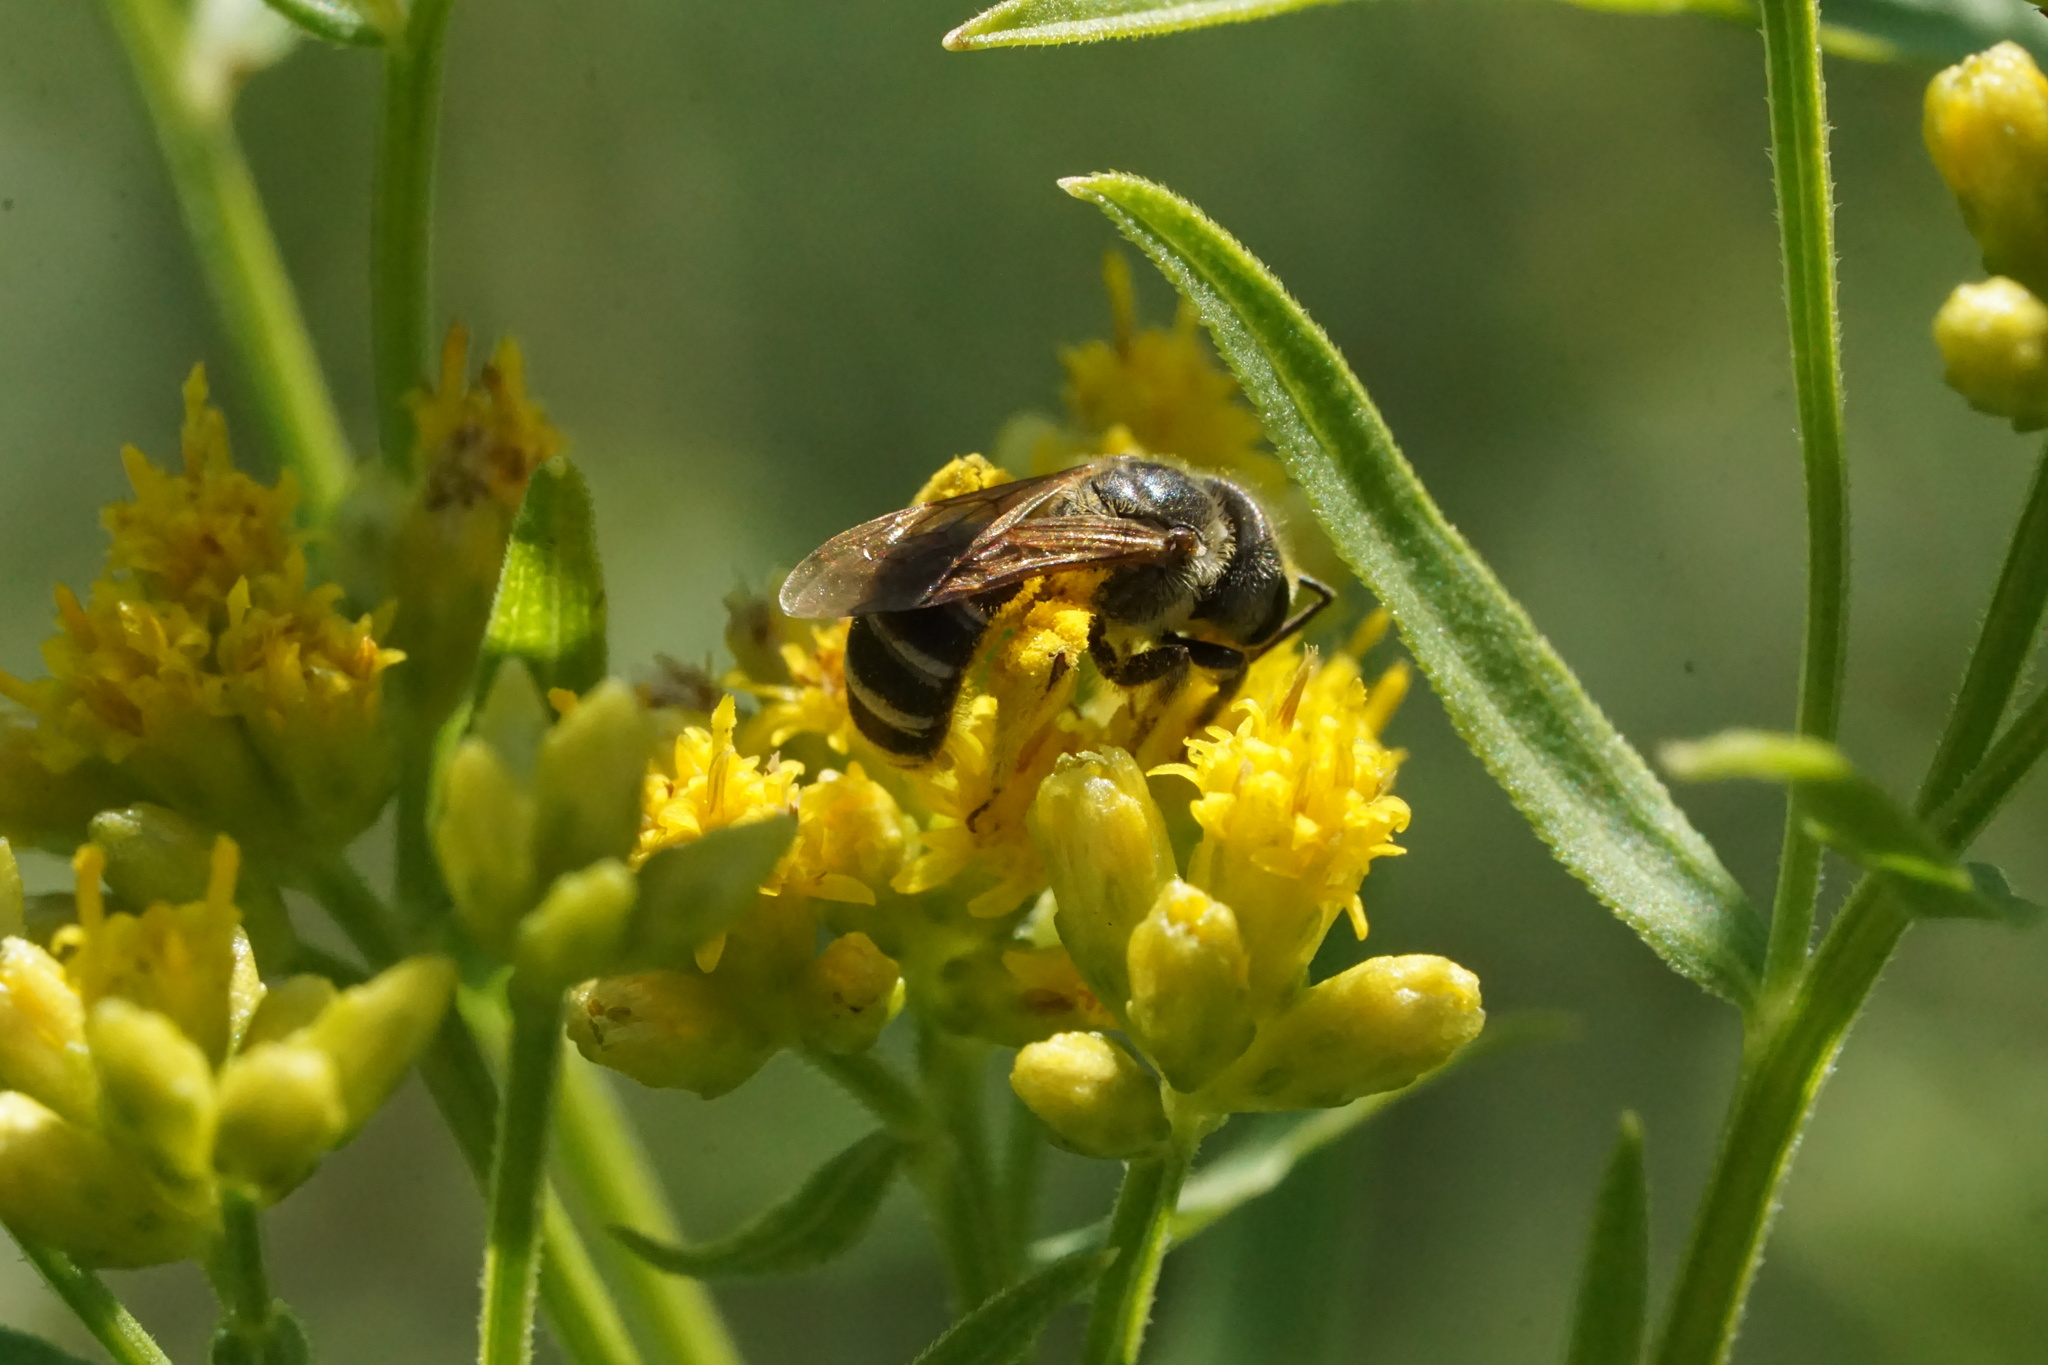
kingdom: Animalia
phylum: Arthropoda
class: Insecta
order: Hymenoptera
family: Halictidae
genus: Halictus
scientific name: Halictus ligatus
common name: Ligated furrow bee
